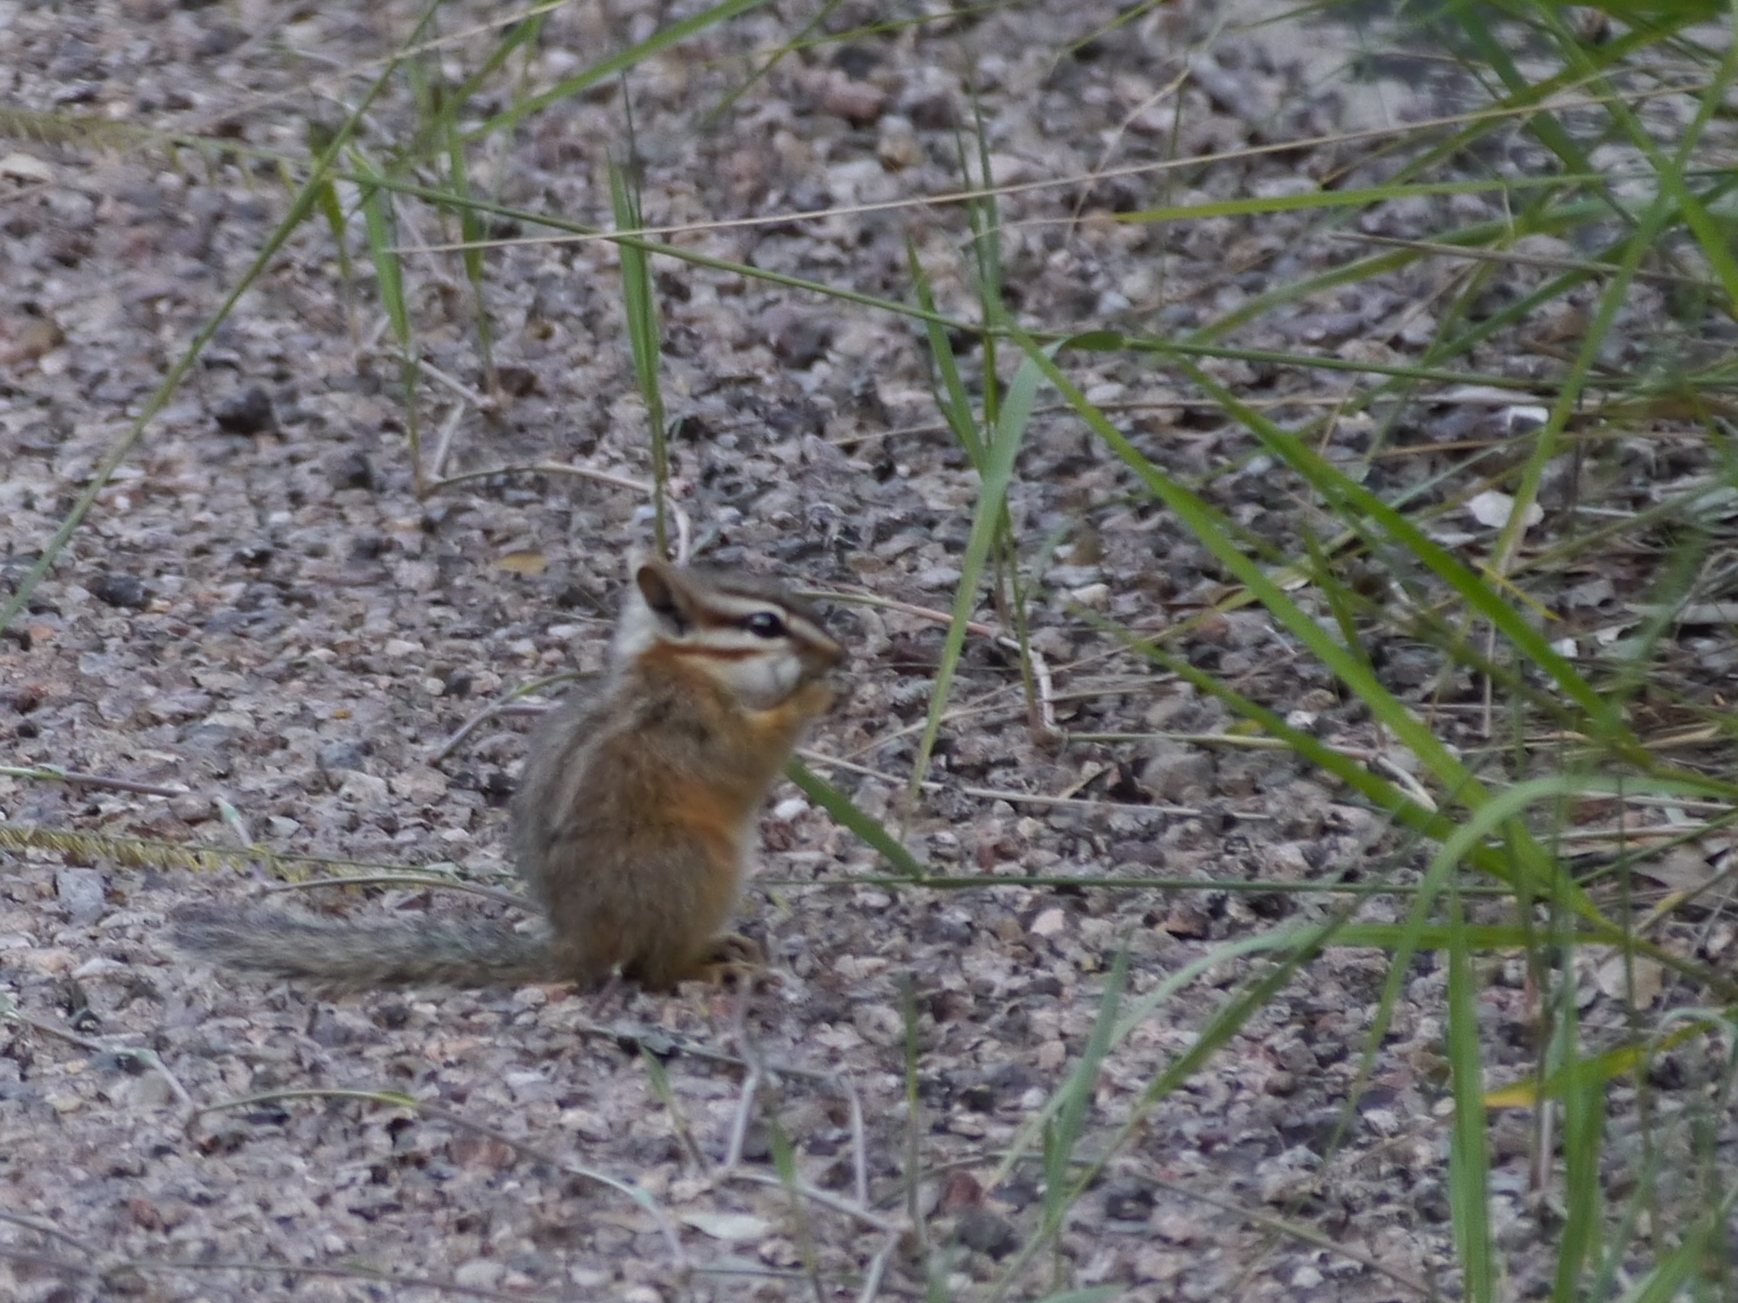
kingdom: Animalia
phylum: Chordata
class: Mammalia
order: Rodentia
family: Sciuridae
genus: Tamias
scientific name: Tamias dorsalis
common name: Cliff chipmunk
